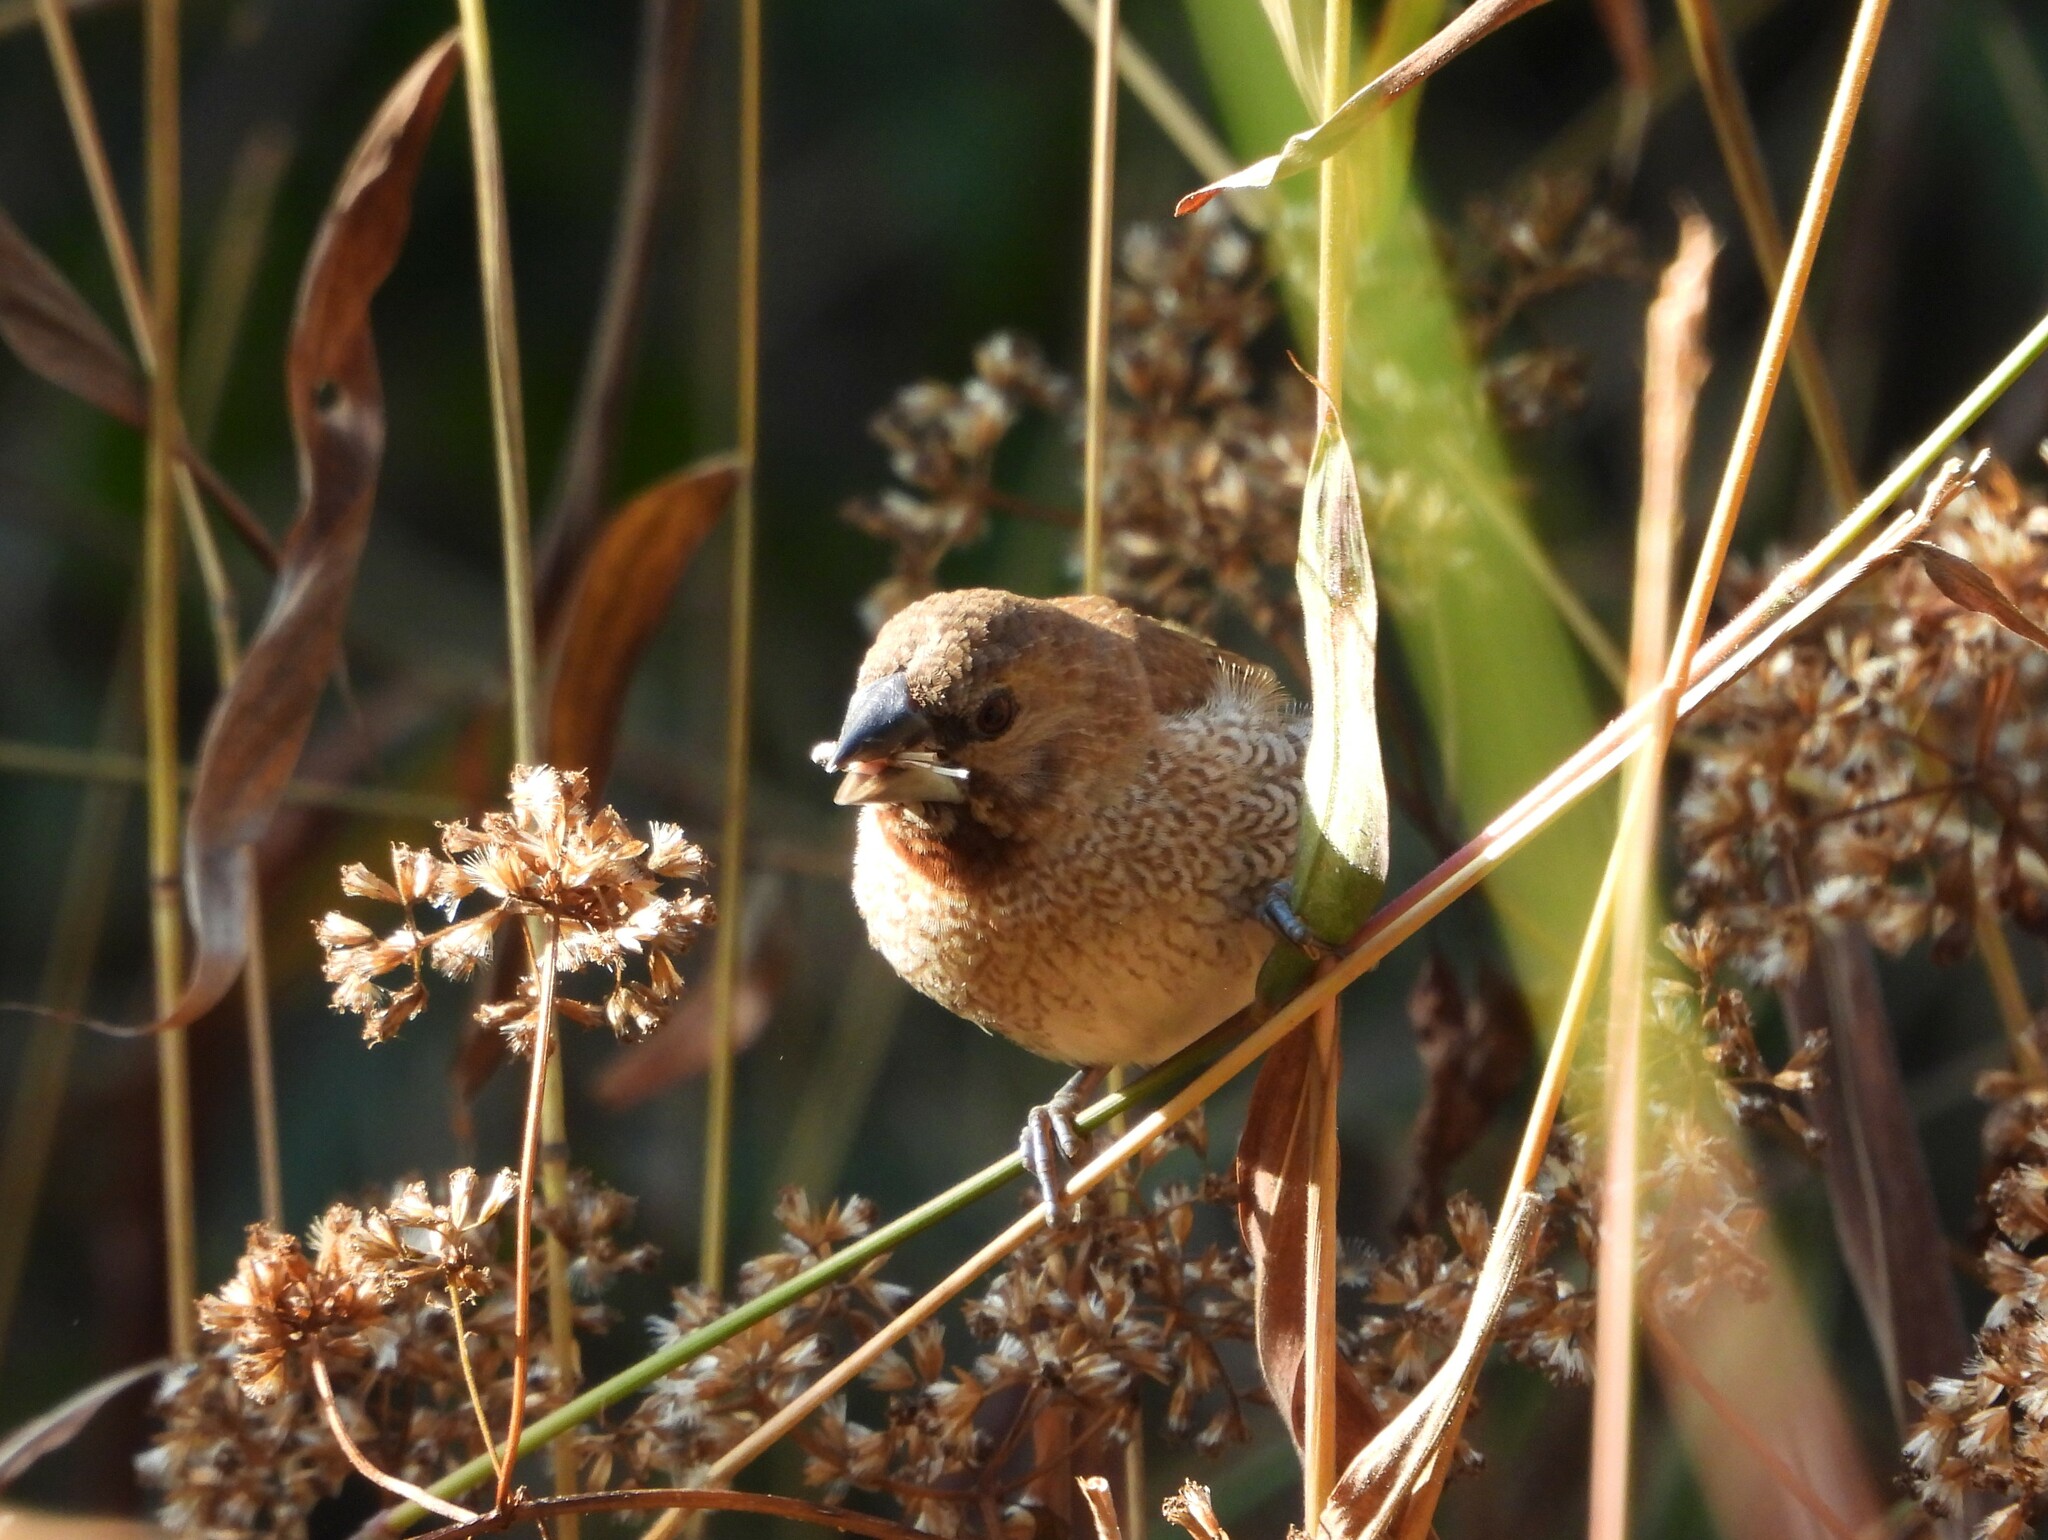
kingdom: Animalia
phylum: Chordata
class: Aves
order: Passeriformes
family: Estrildidae
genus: Lonchura
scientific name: Lonchura punctulata
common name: Scaly-breasted munia
